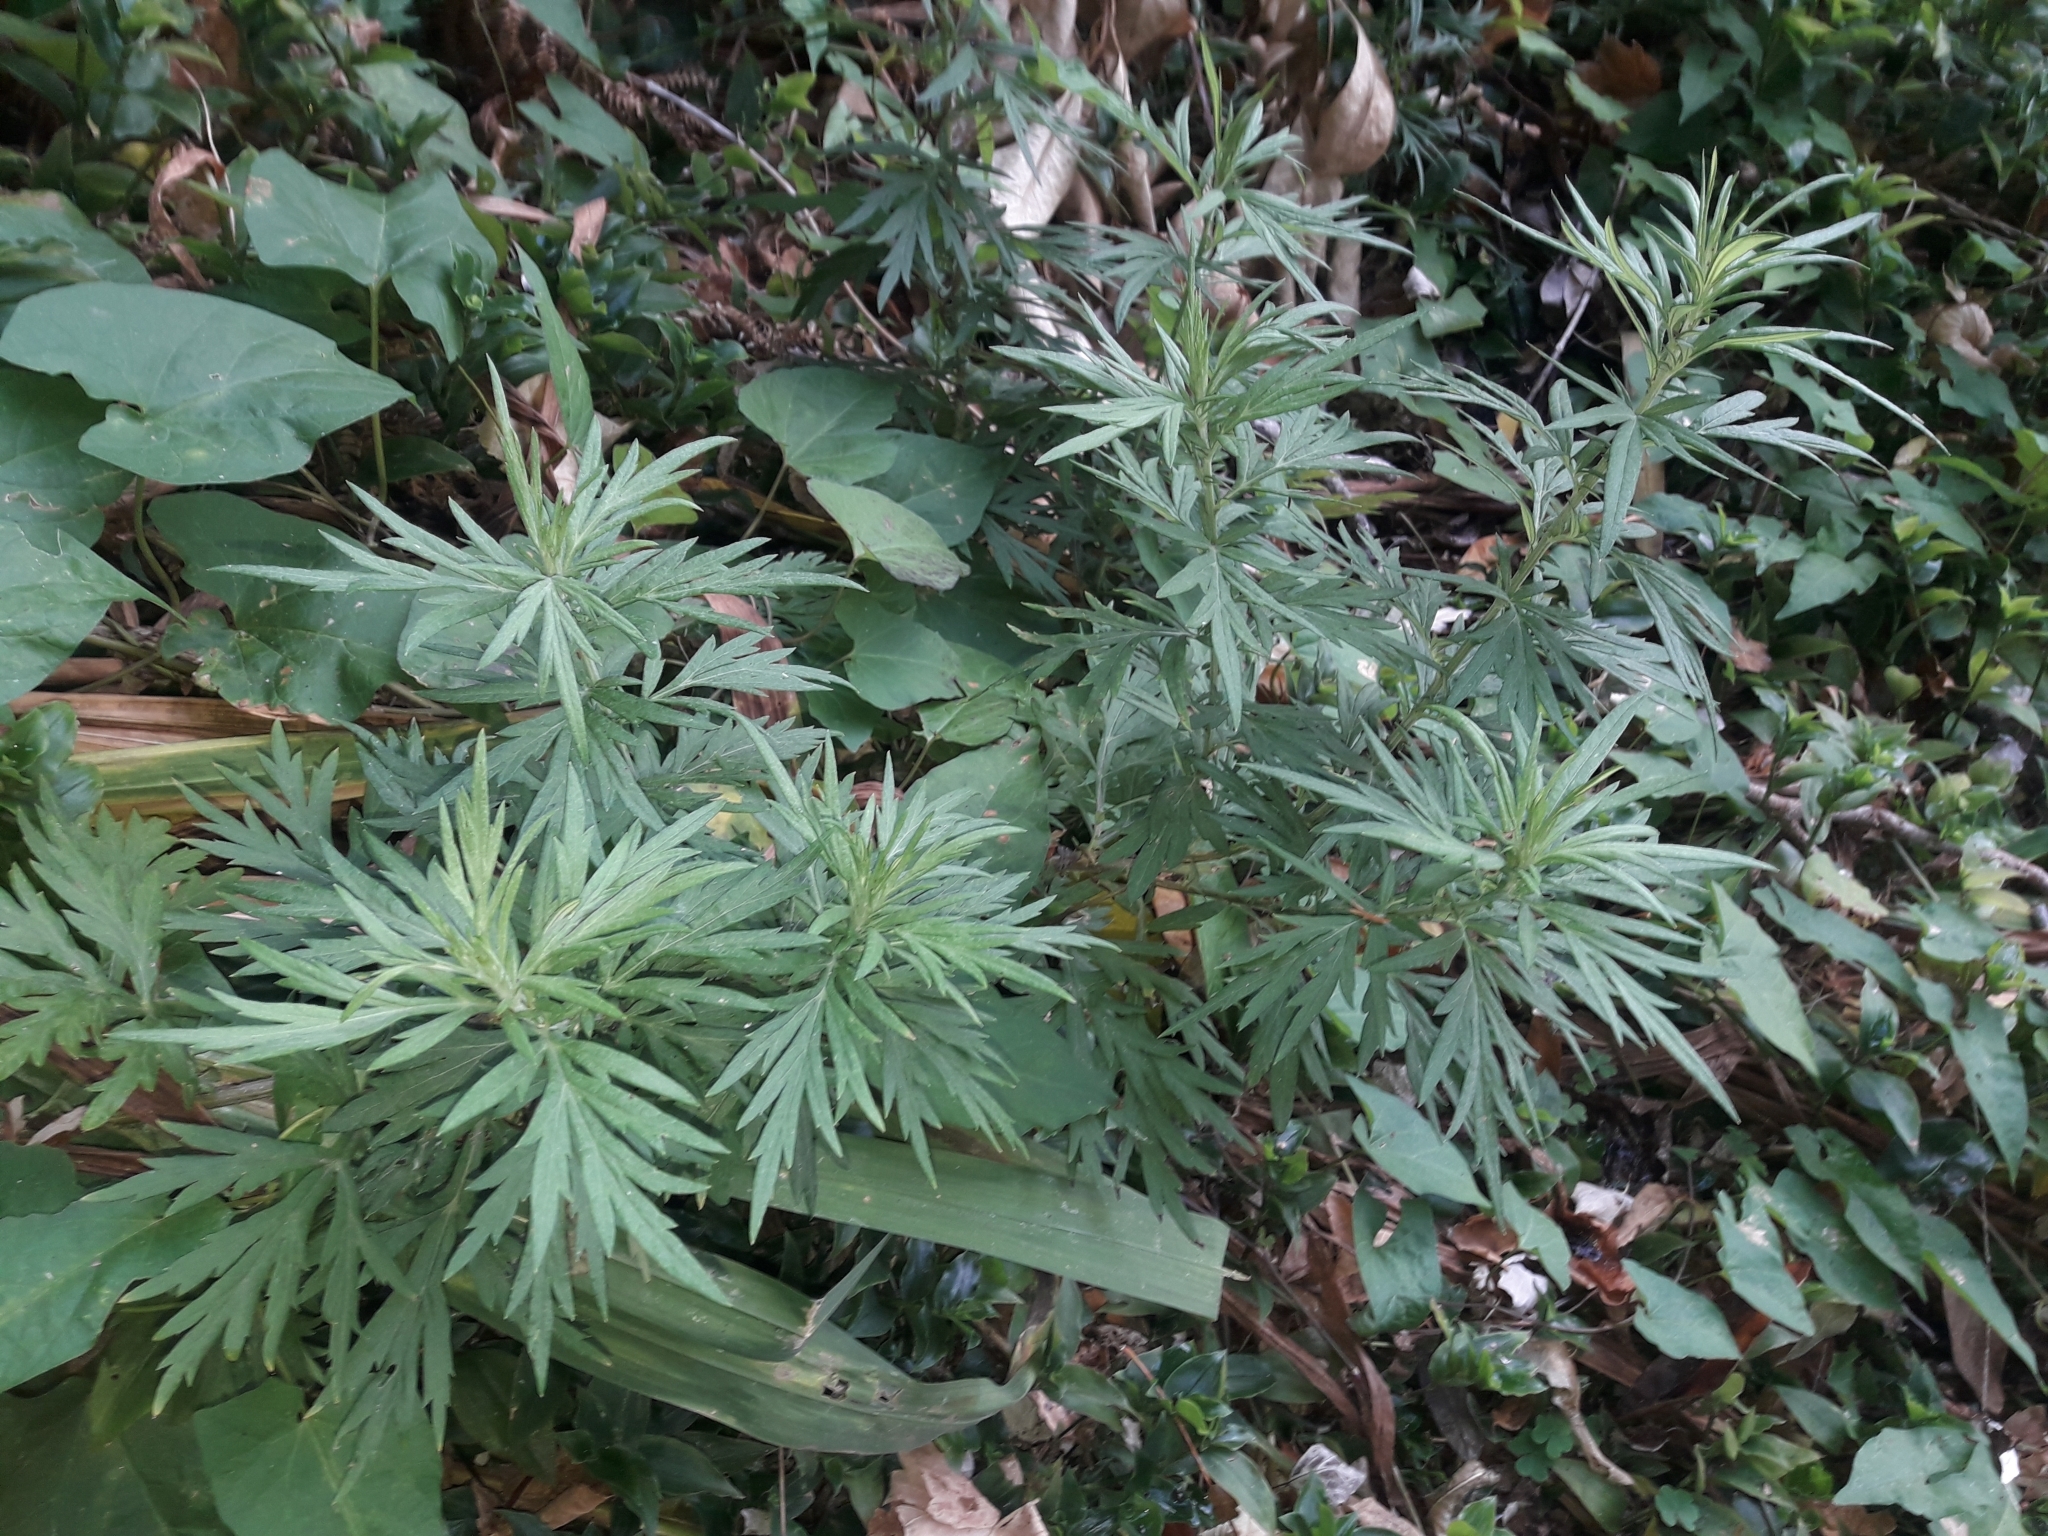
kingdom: Plantae
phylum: Tracheophyta
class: Magnoliopsida
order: Asterales
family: Asteraceae
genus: Artemisia
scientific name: Artemisia verlotiorum
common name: Chinese mugwort
